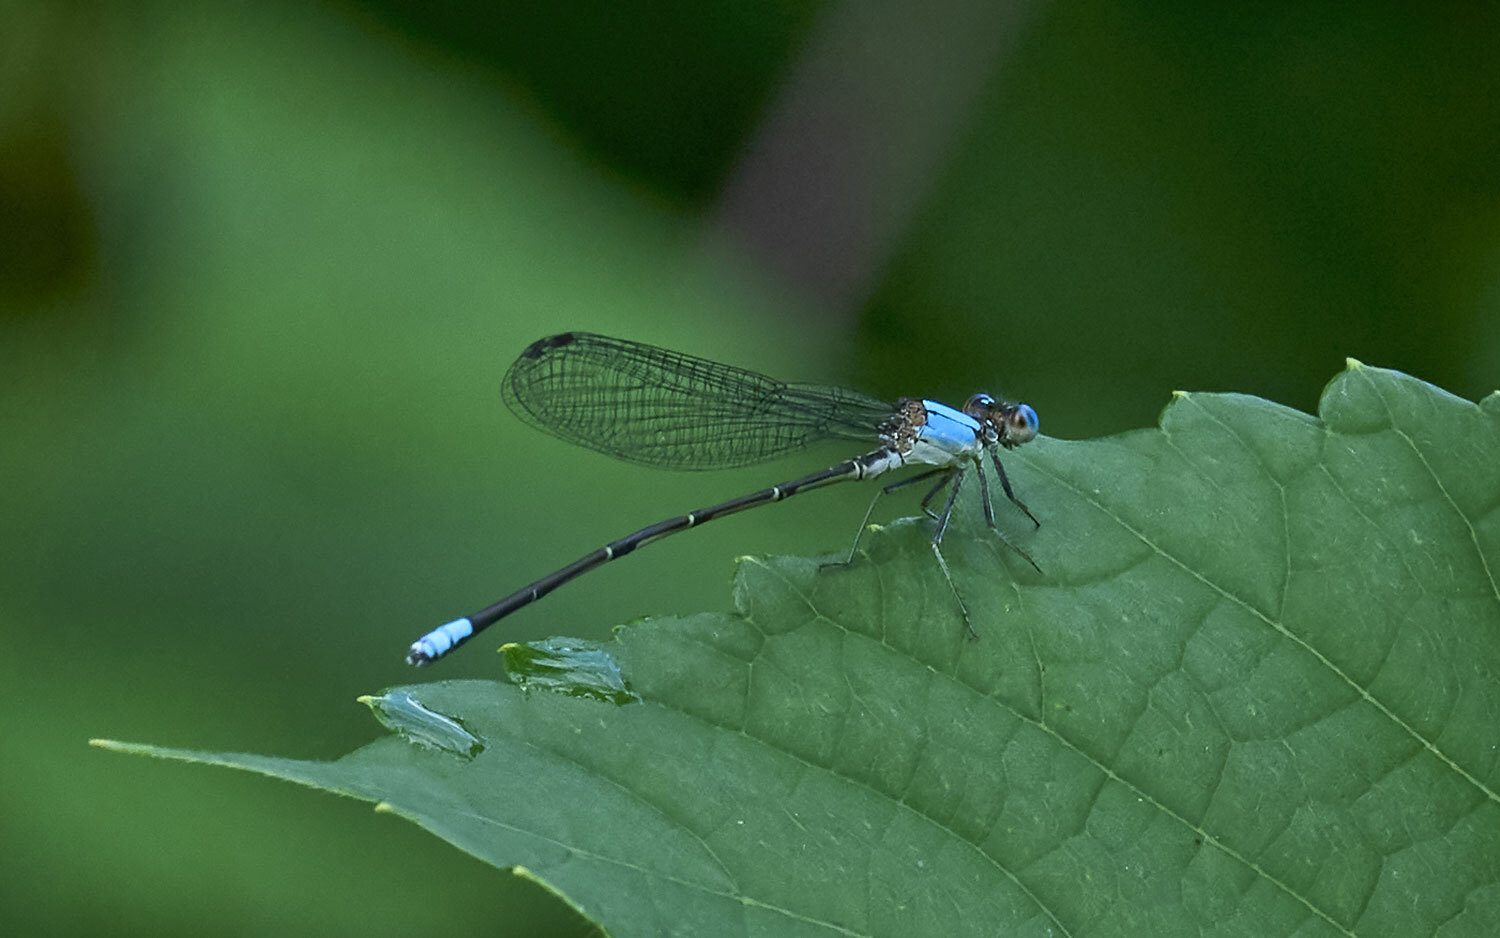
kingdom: Animalia
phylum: Arthropoda
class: Insecta
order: Odonata
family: Coenagrionidae
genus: Argia
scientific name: Argia apicalis
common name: Blue-fronted dancer
